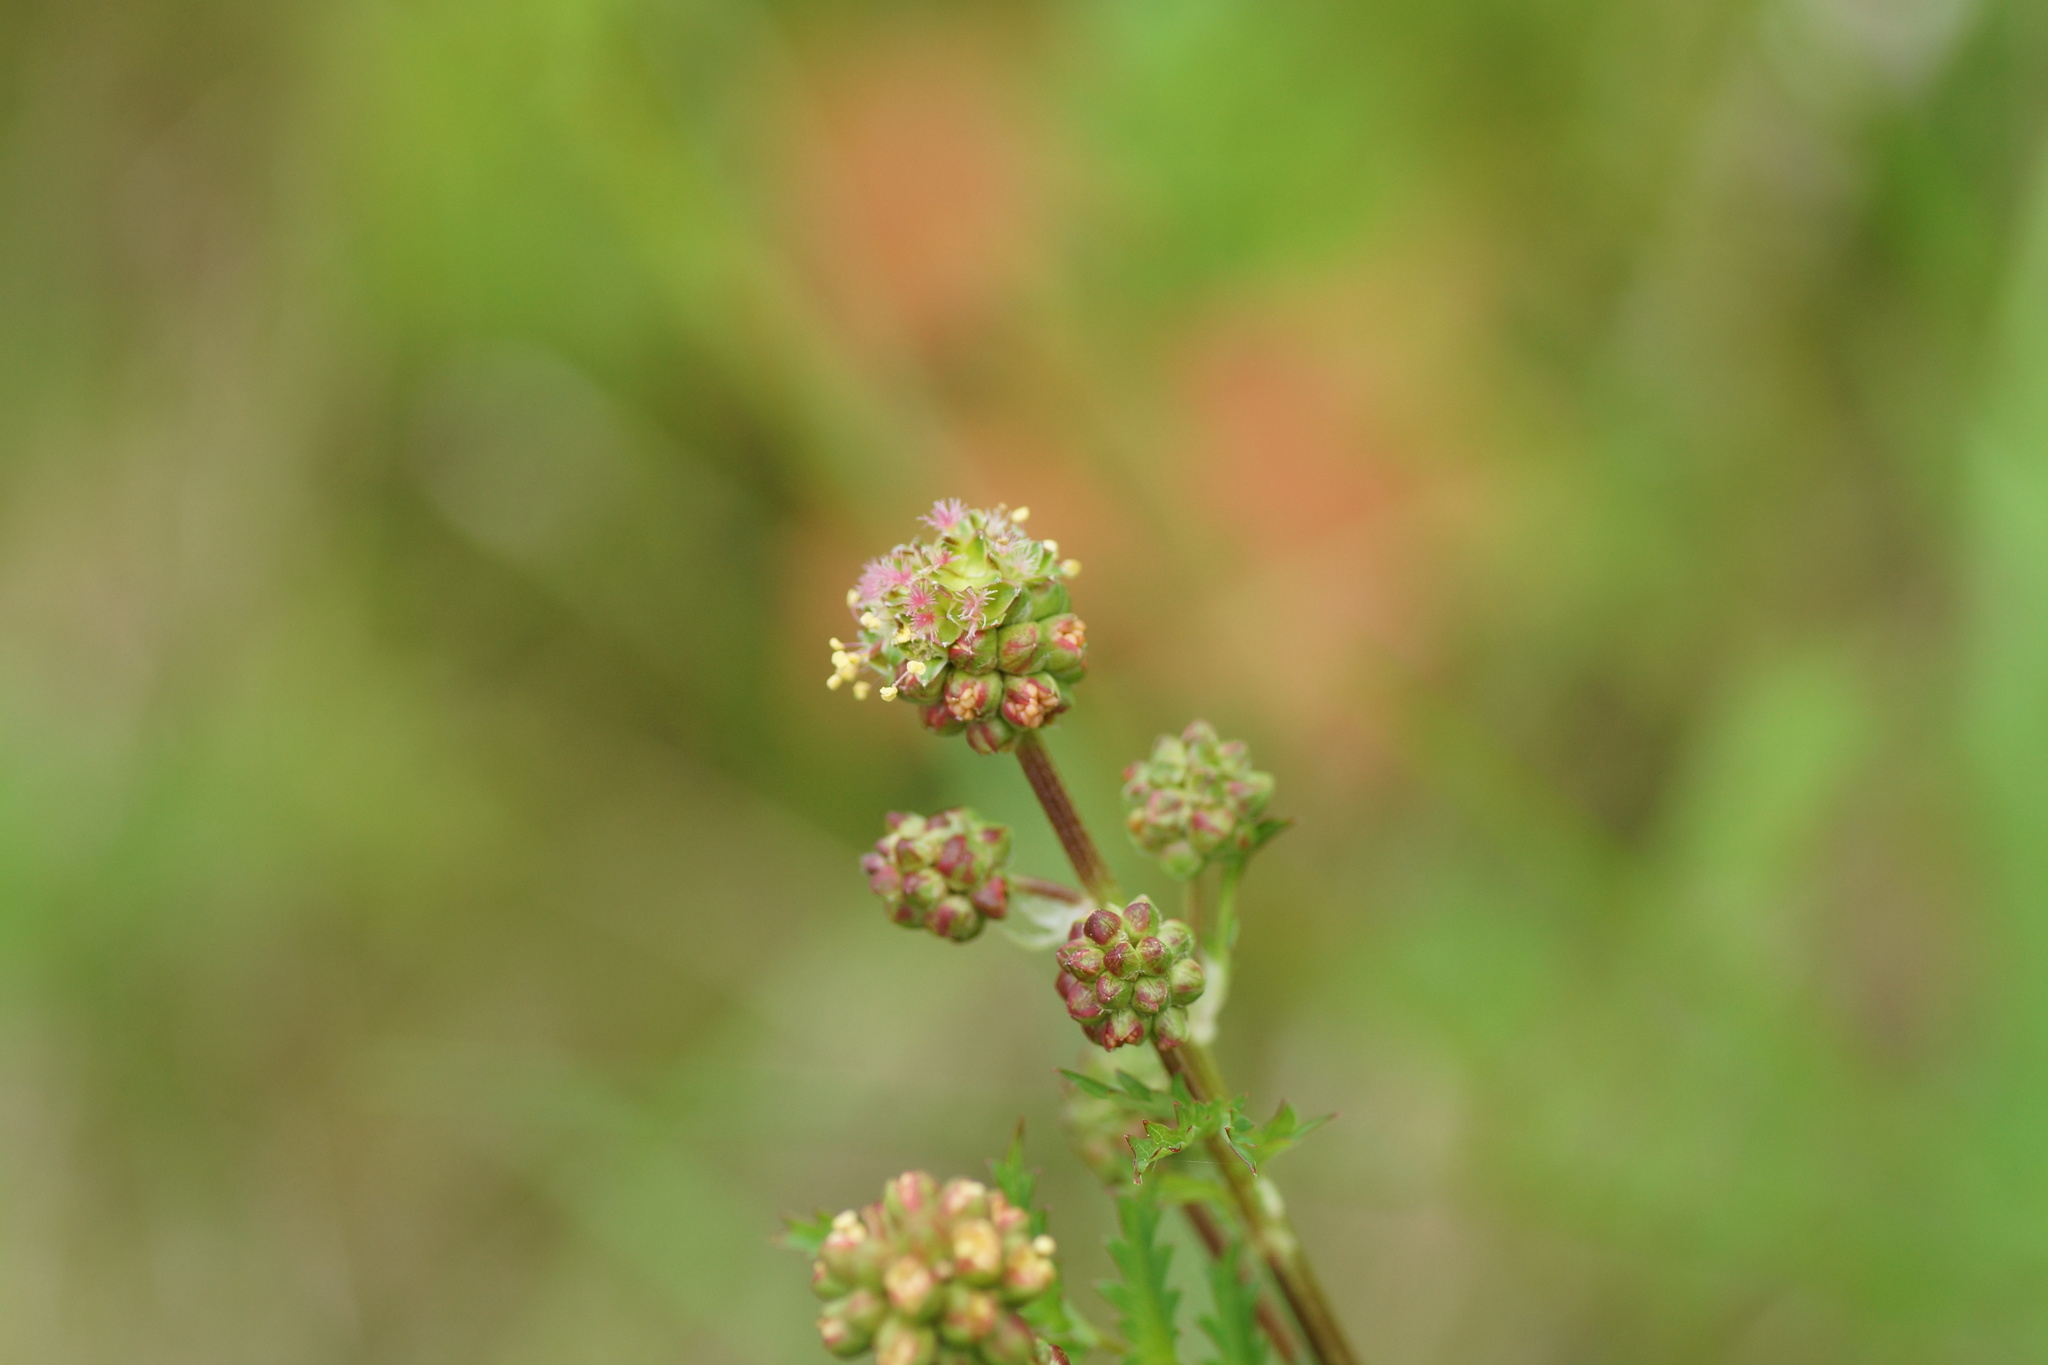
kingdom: Plantae
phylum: Tracheophyta
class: Magnoliopsida
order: Rosales
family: Rosaceae
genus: Poterium
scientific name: Poterium sanguisorba
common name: Salad burnet
